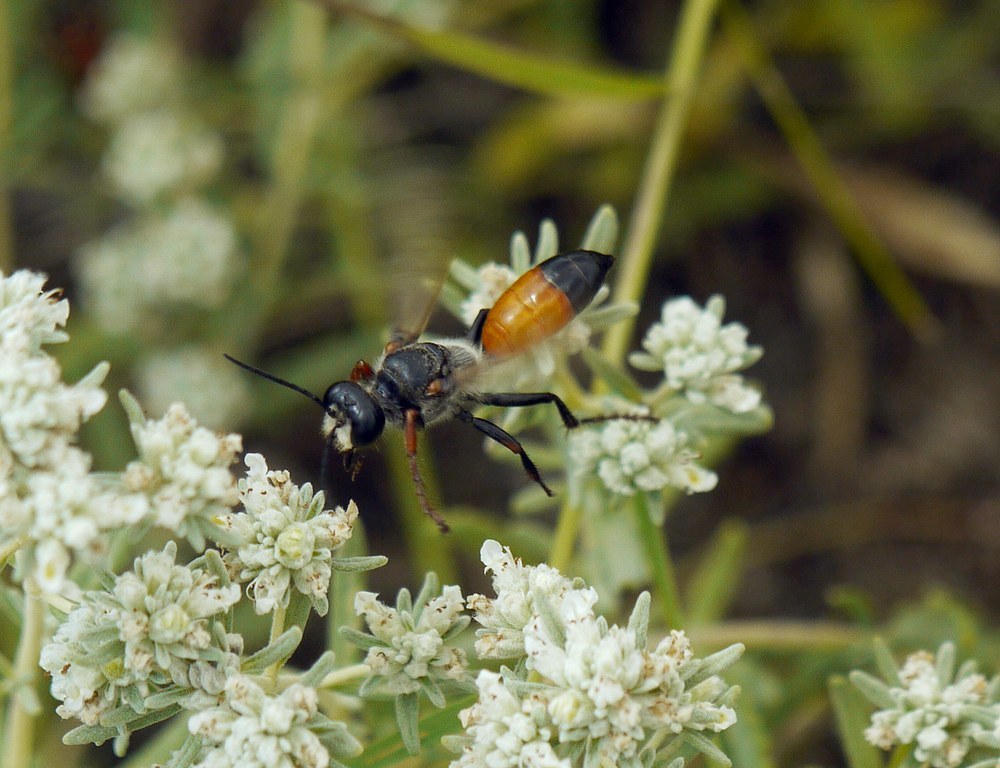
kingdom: Animalia
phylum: Arthropoda
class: Insecta
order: Hymenoptera
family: Sphecidae
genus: Sphex
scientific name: Sphex funerarius
